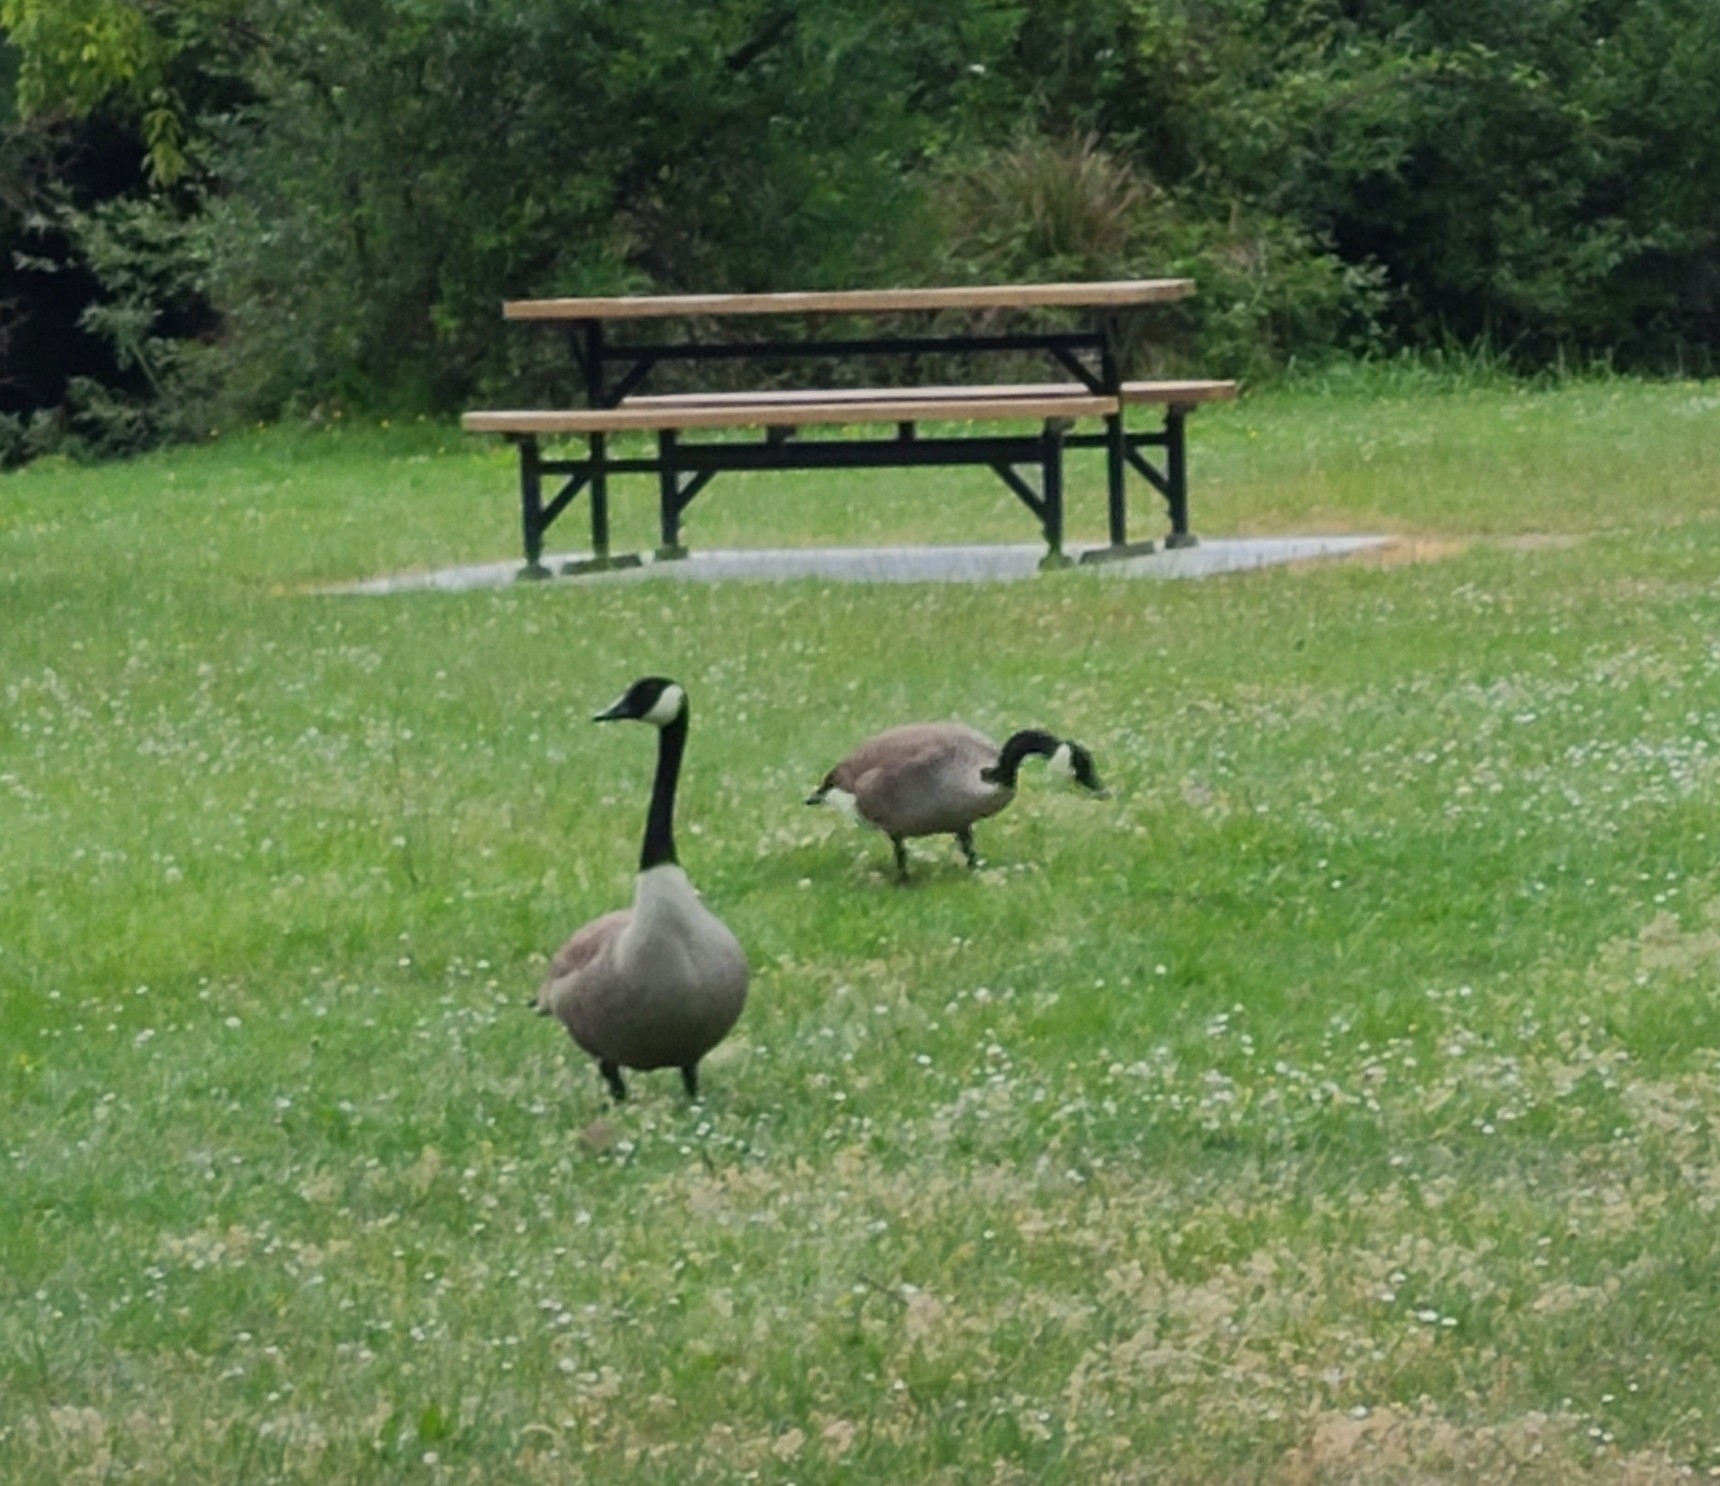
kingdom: Animalia
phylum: Chordata
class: Aves
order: Anseriformes
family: Anatidae
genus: Branta
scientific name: Branta canadensis
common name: Canada goose
